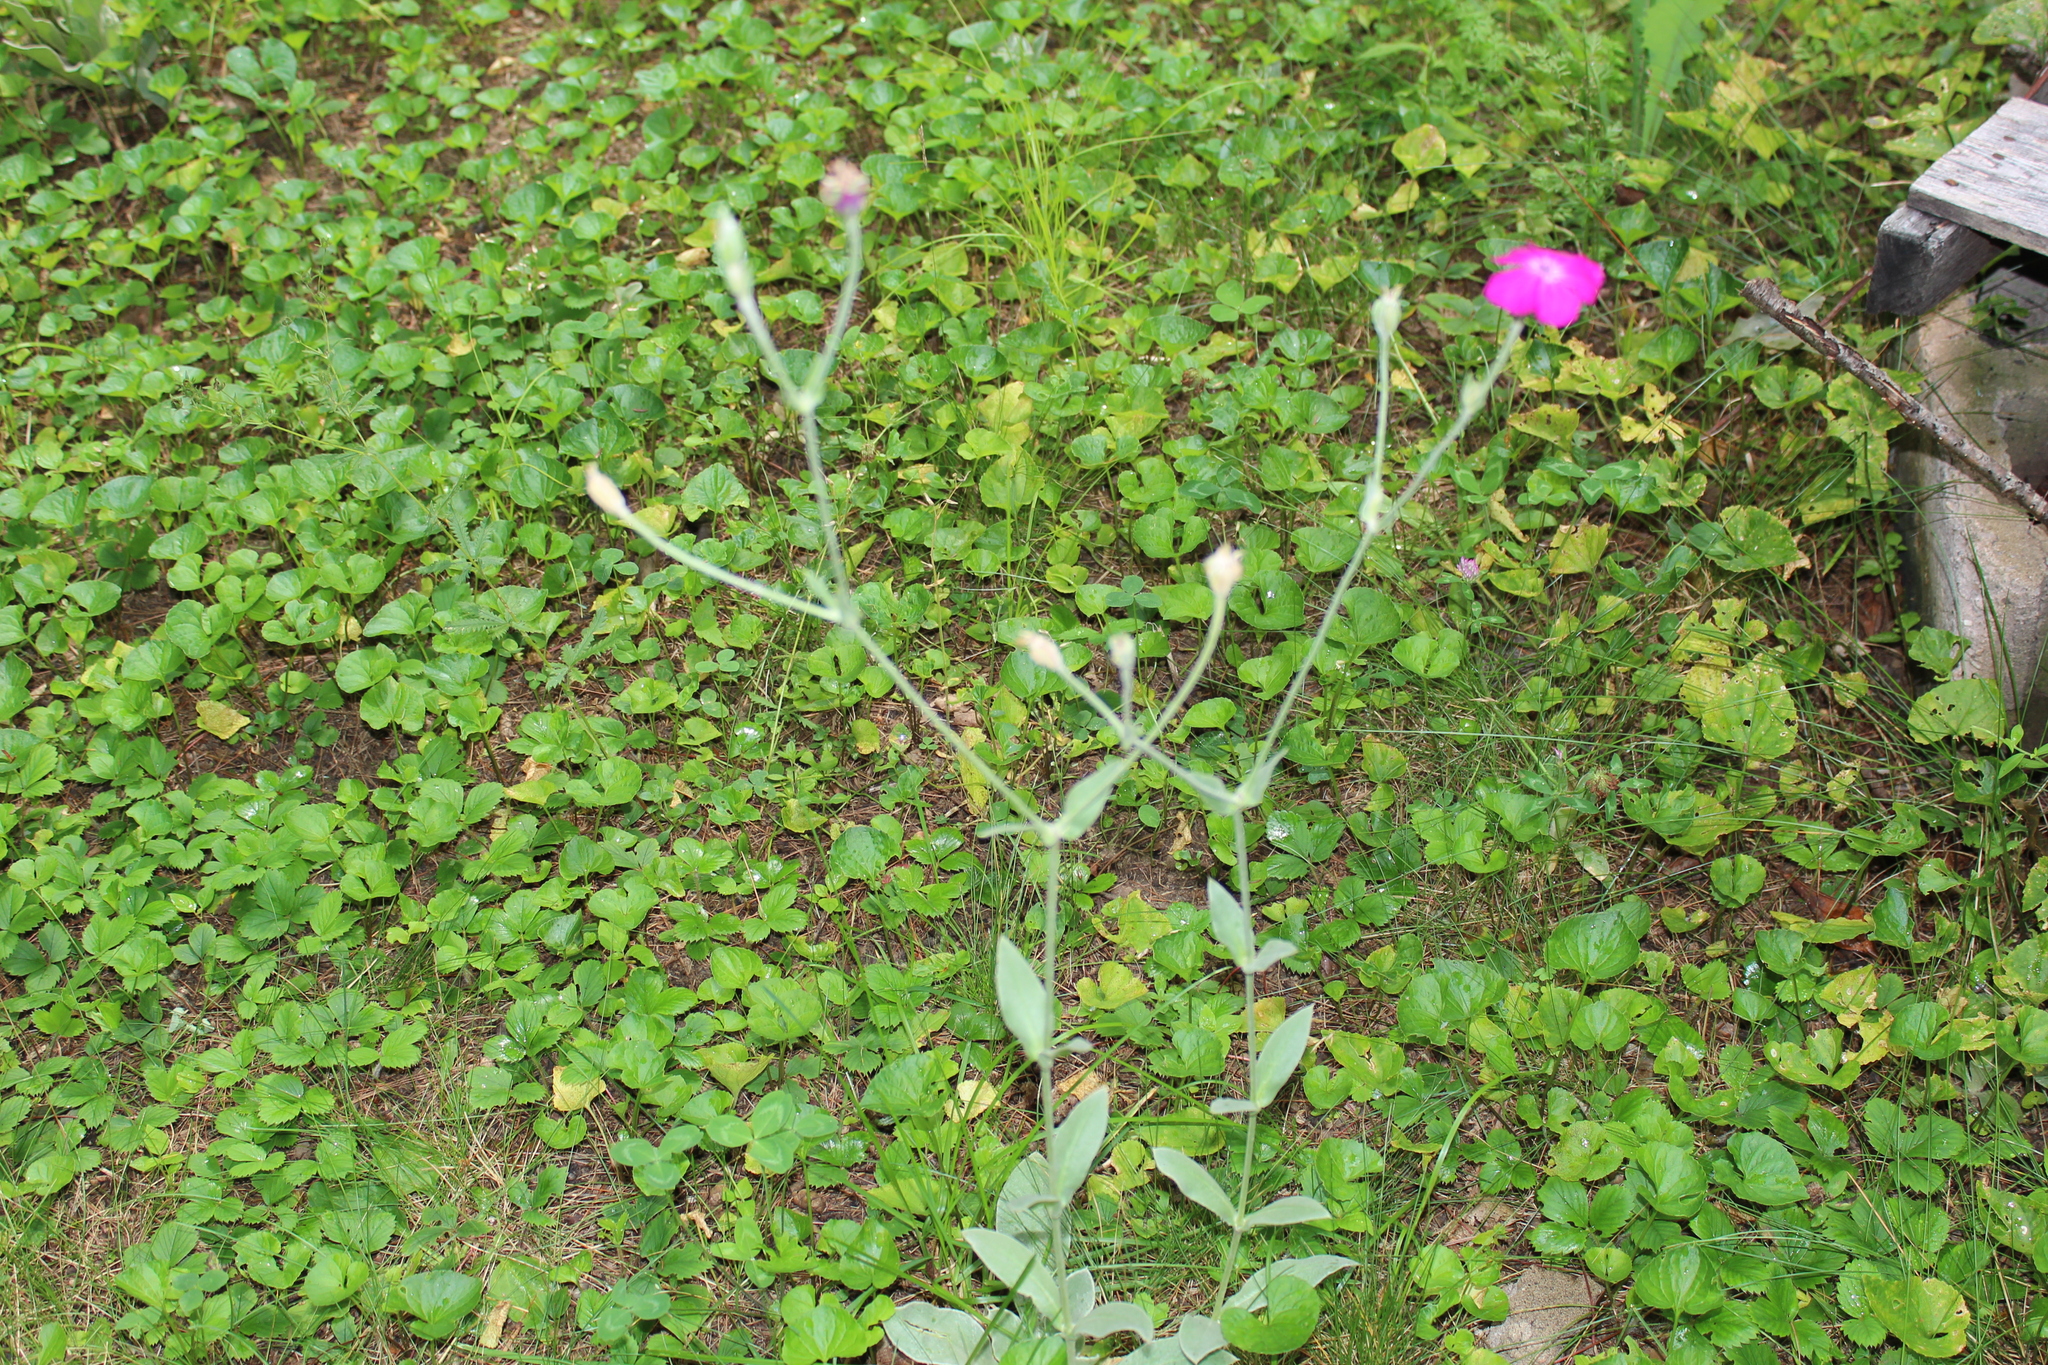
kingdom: Plantae
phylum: Tracheophyta
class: Magnoliopsida
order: Caryophyllales
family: Caryophyllaceae
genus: Silene
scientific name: Silene coronaria
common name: Rose campion
